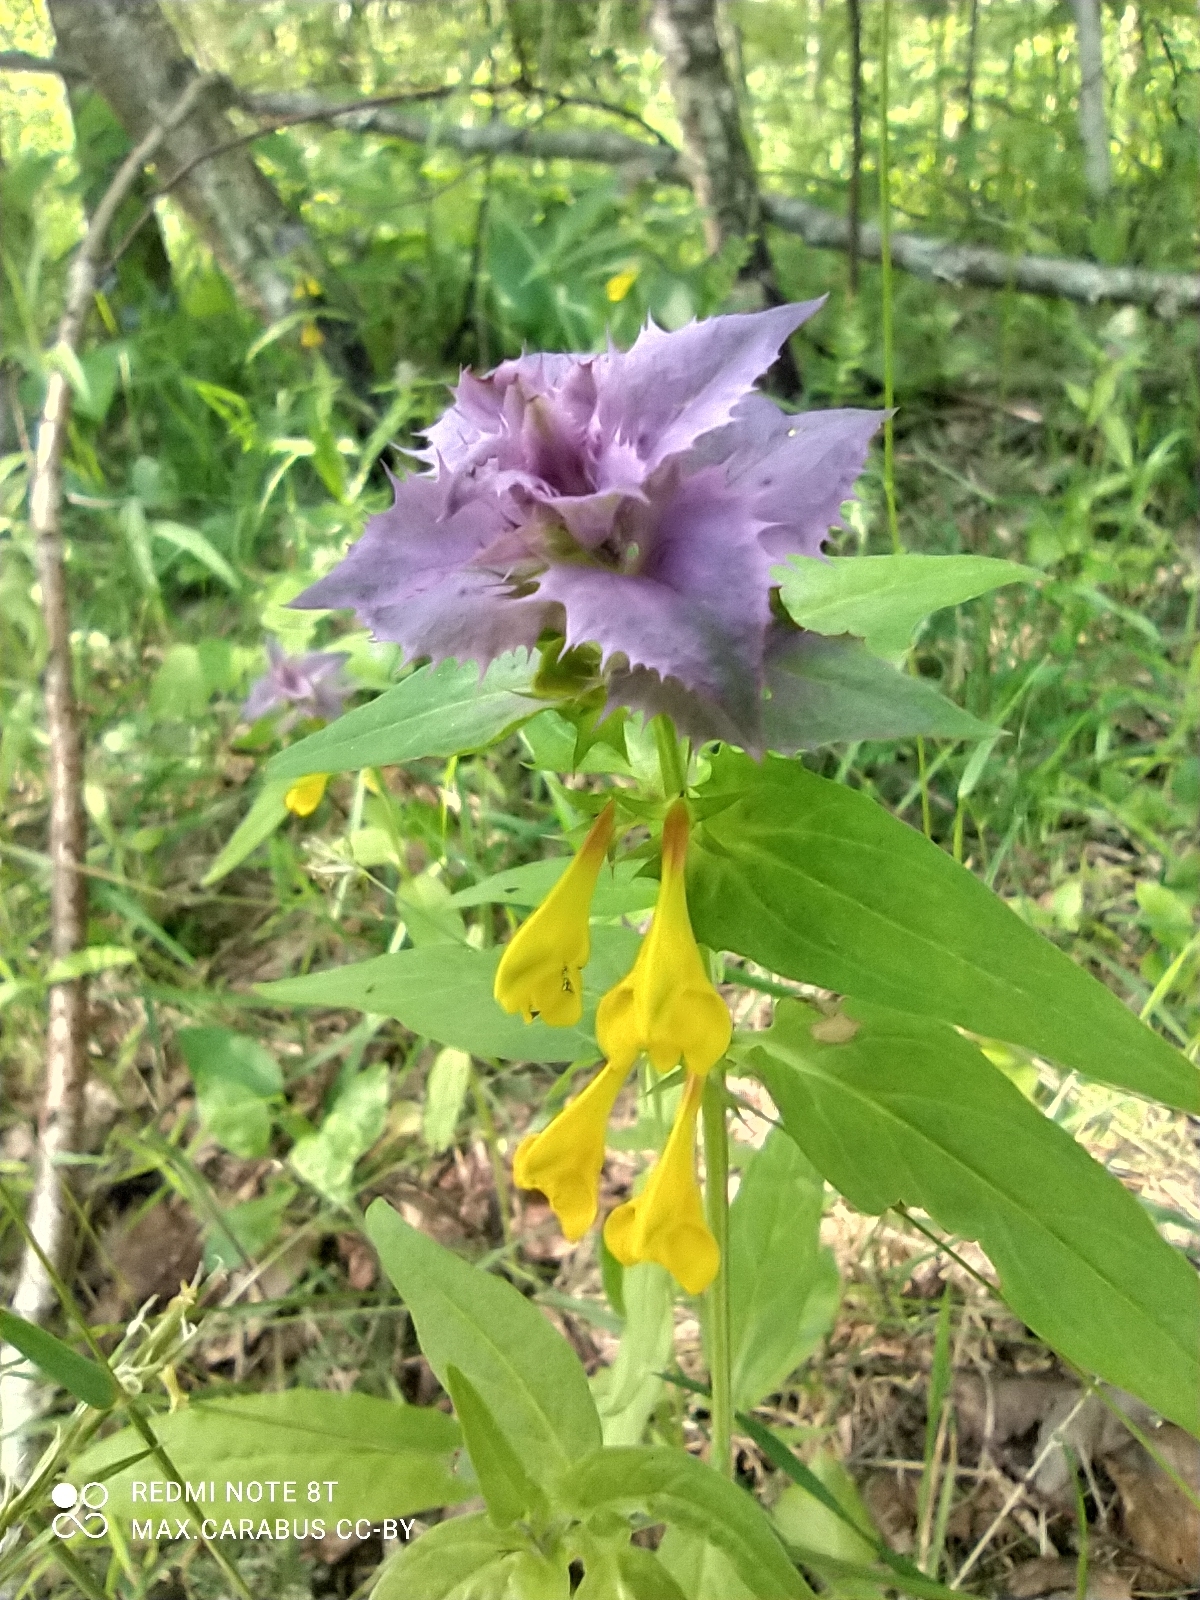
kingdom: Plantae
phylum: Tracheophyta
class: Magnoliopsida
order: Lamiales
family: Orobanchaceae
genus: Melampyrum
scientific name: Melampyrum nemorosum
